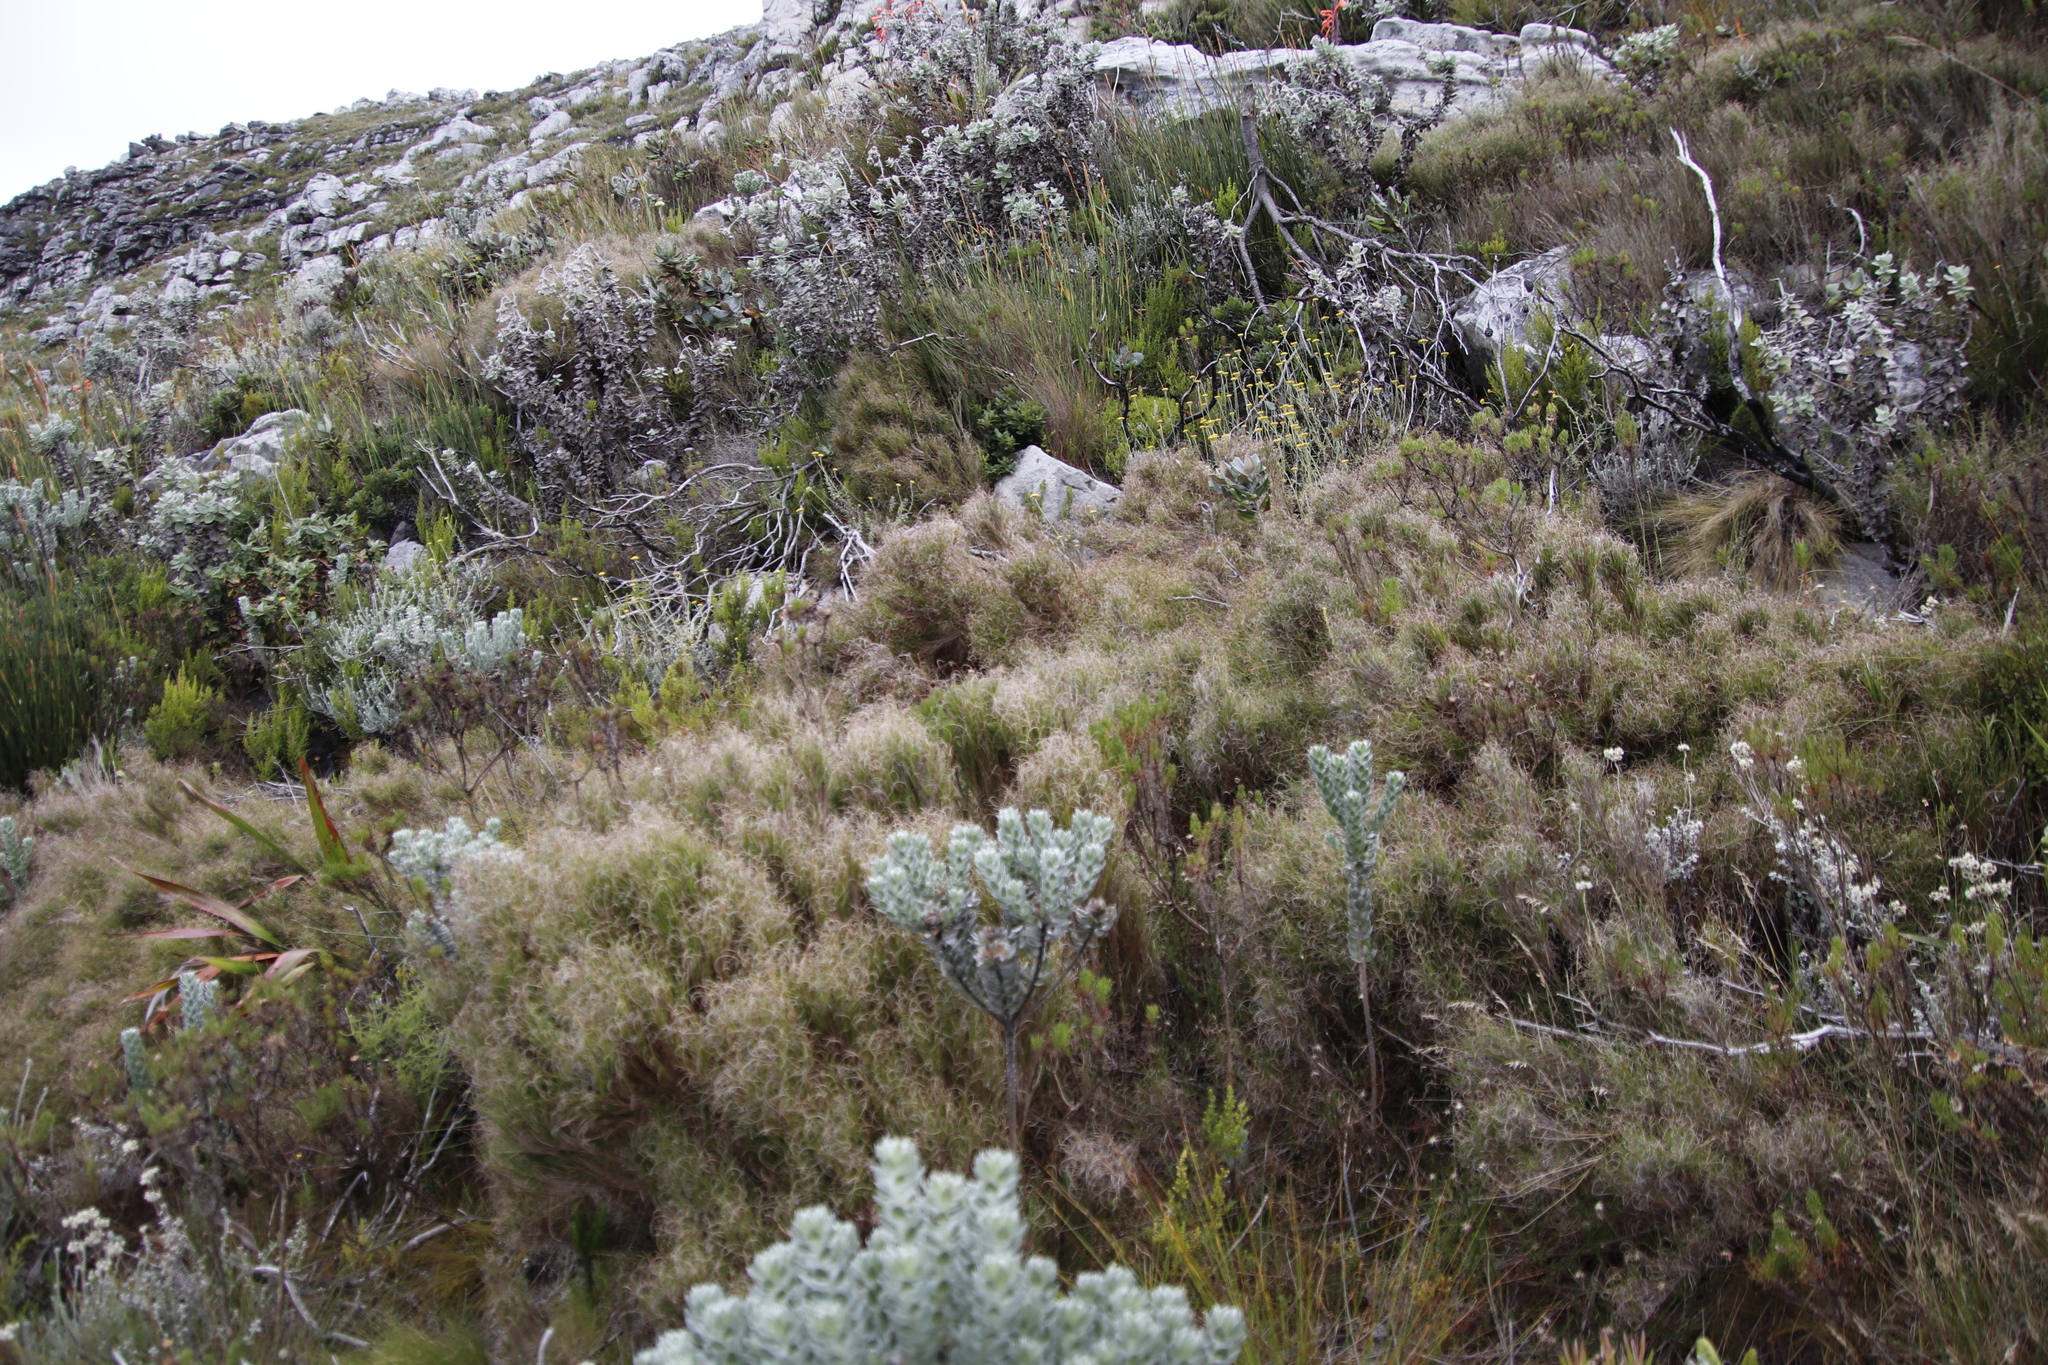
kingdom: Plantae
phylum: Tracheophyta
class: Liliopsida
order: Poales
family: Poaceae
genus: Pseudopentameris
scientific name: Pseudopentameris macrantha
